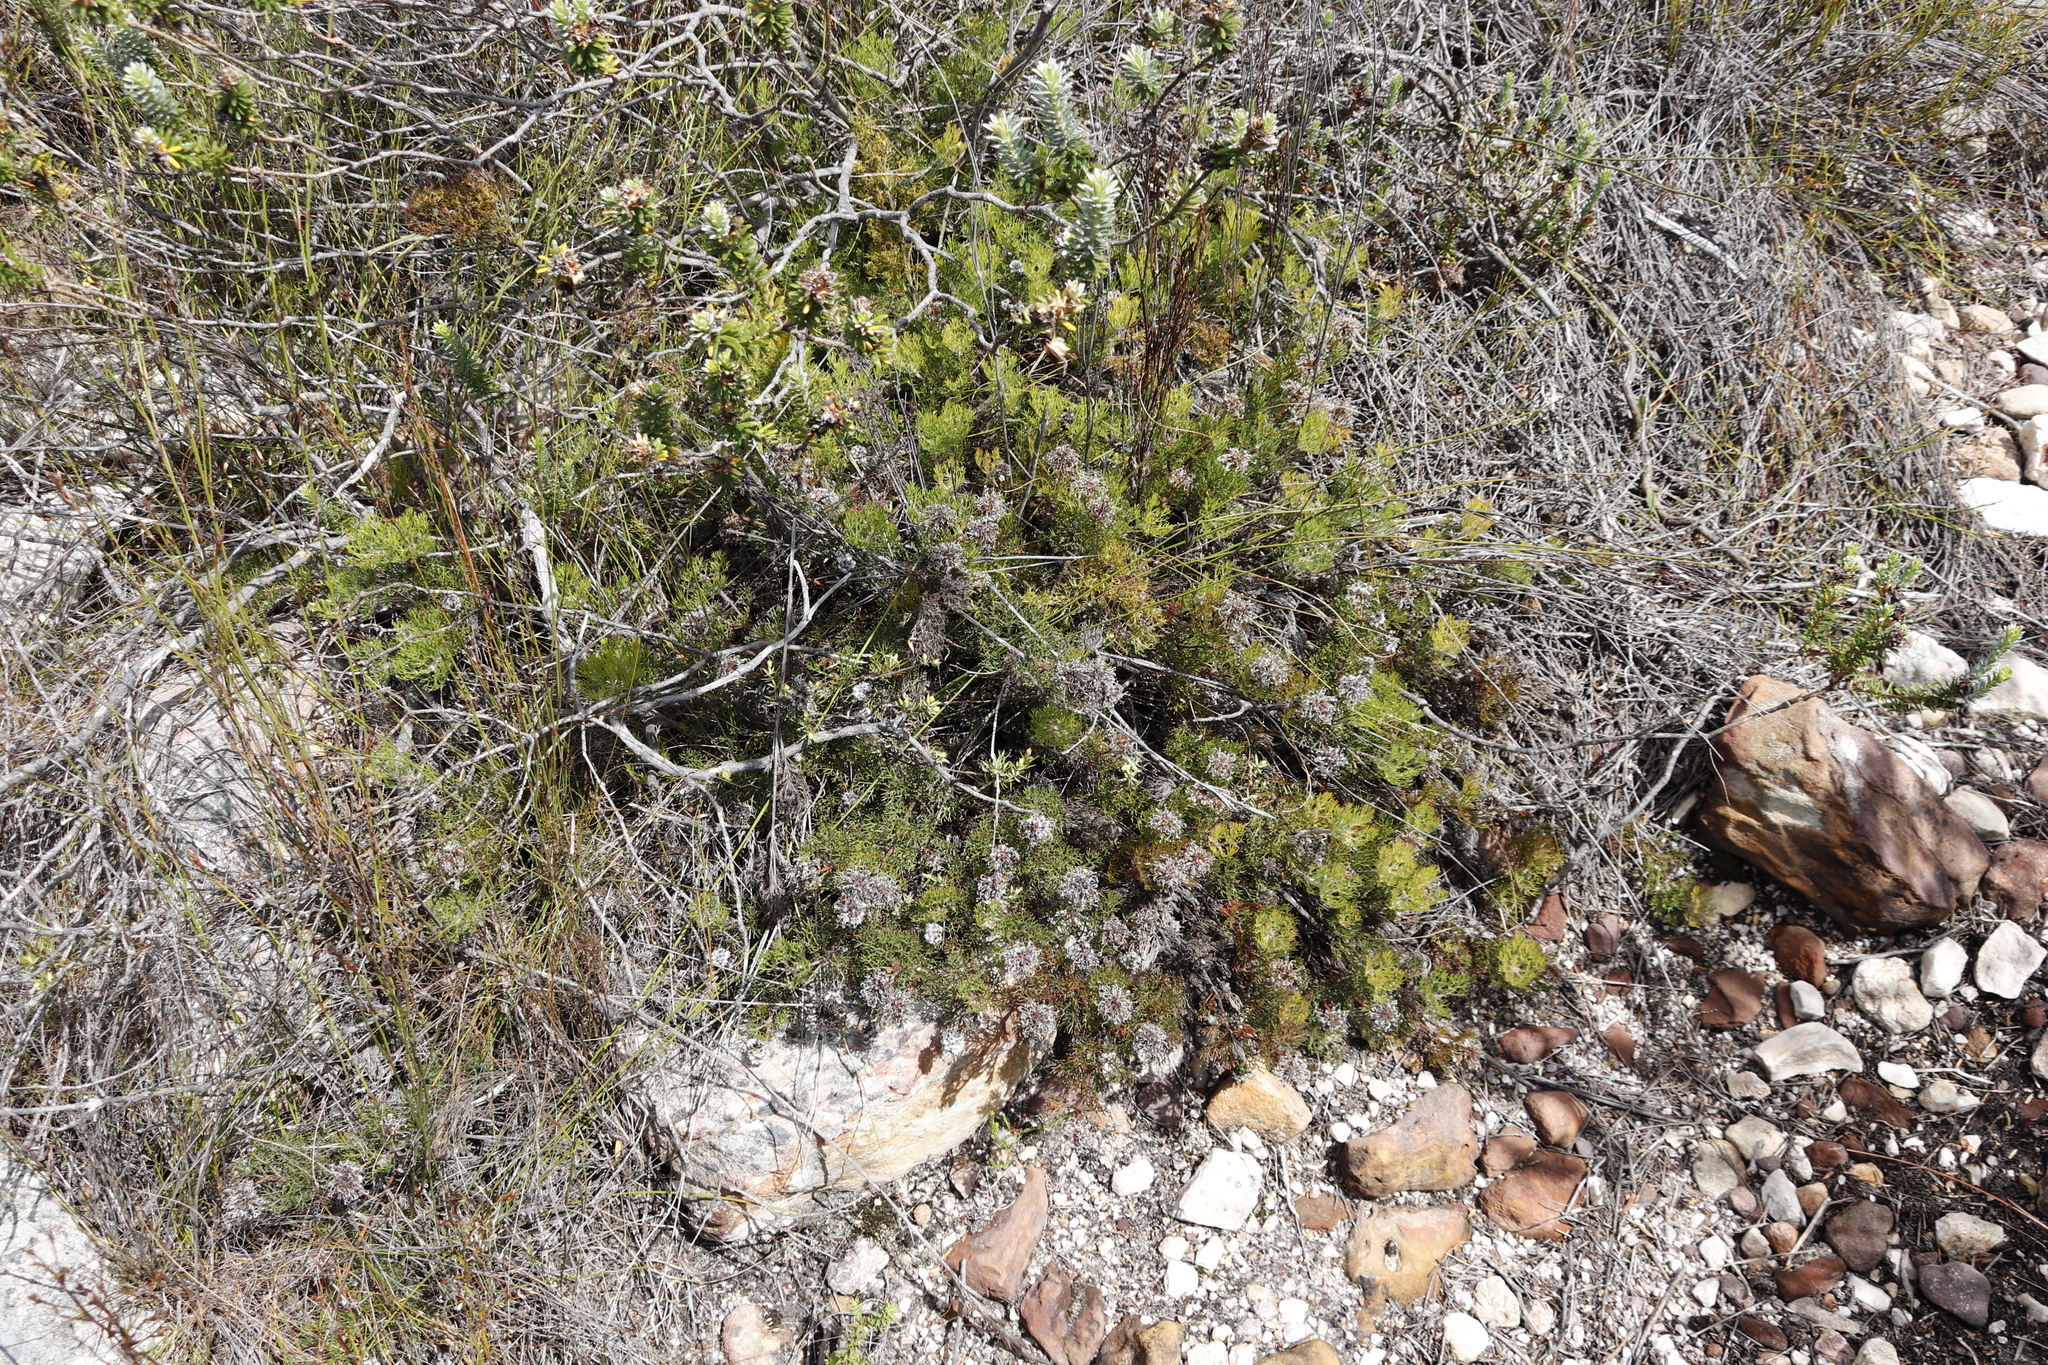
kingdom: Plantae
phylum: Tracheophyta
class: Magnoliopsida
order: Proteales
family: Proteaceae
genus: Serruria
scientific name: Serruria
